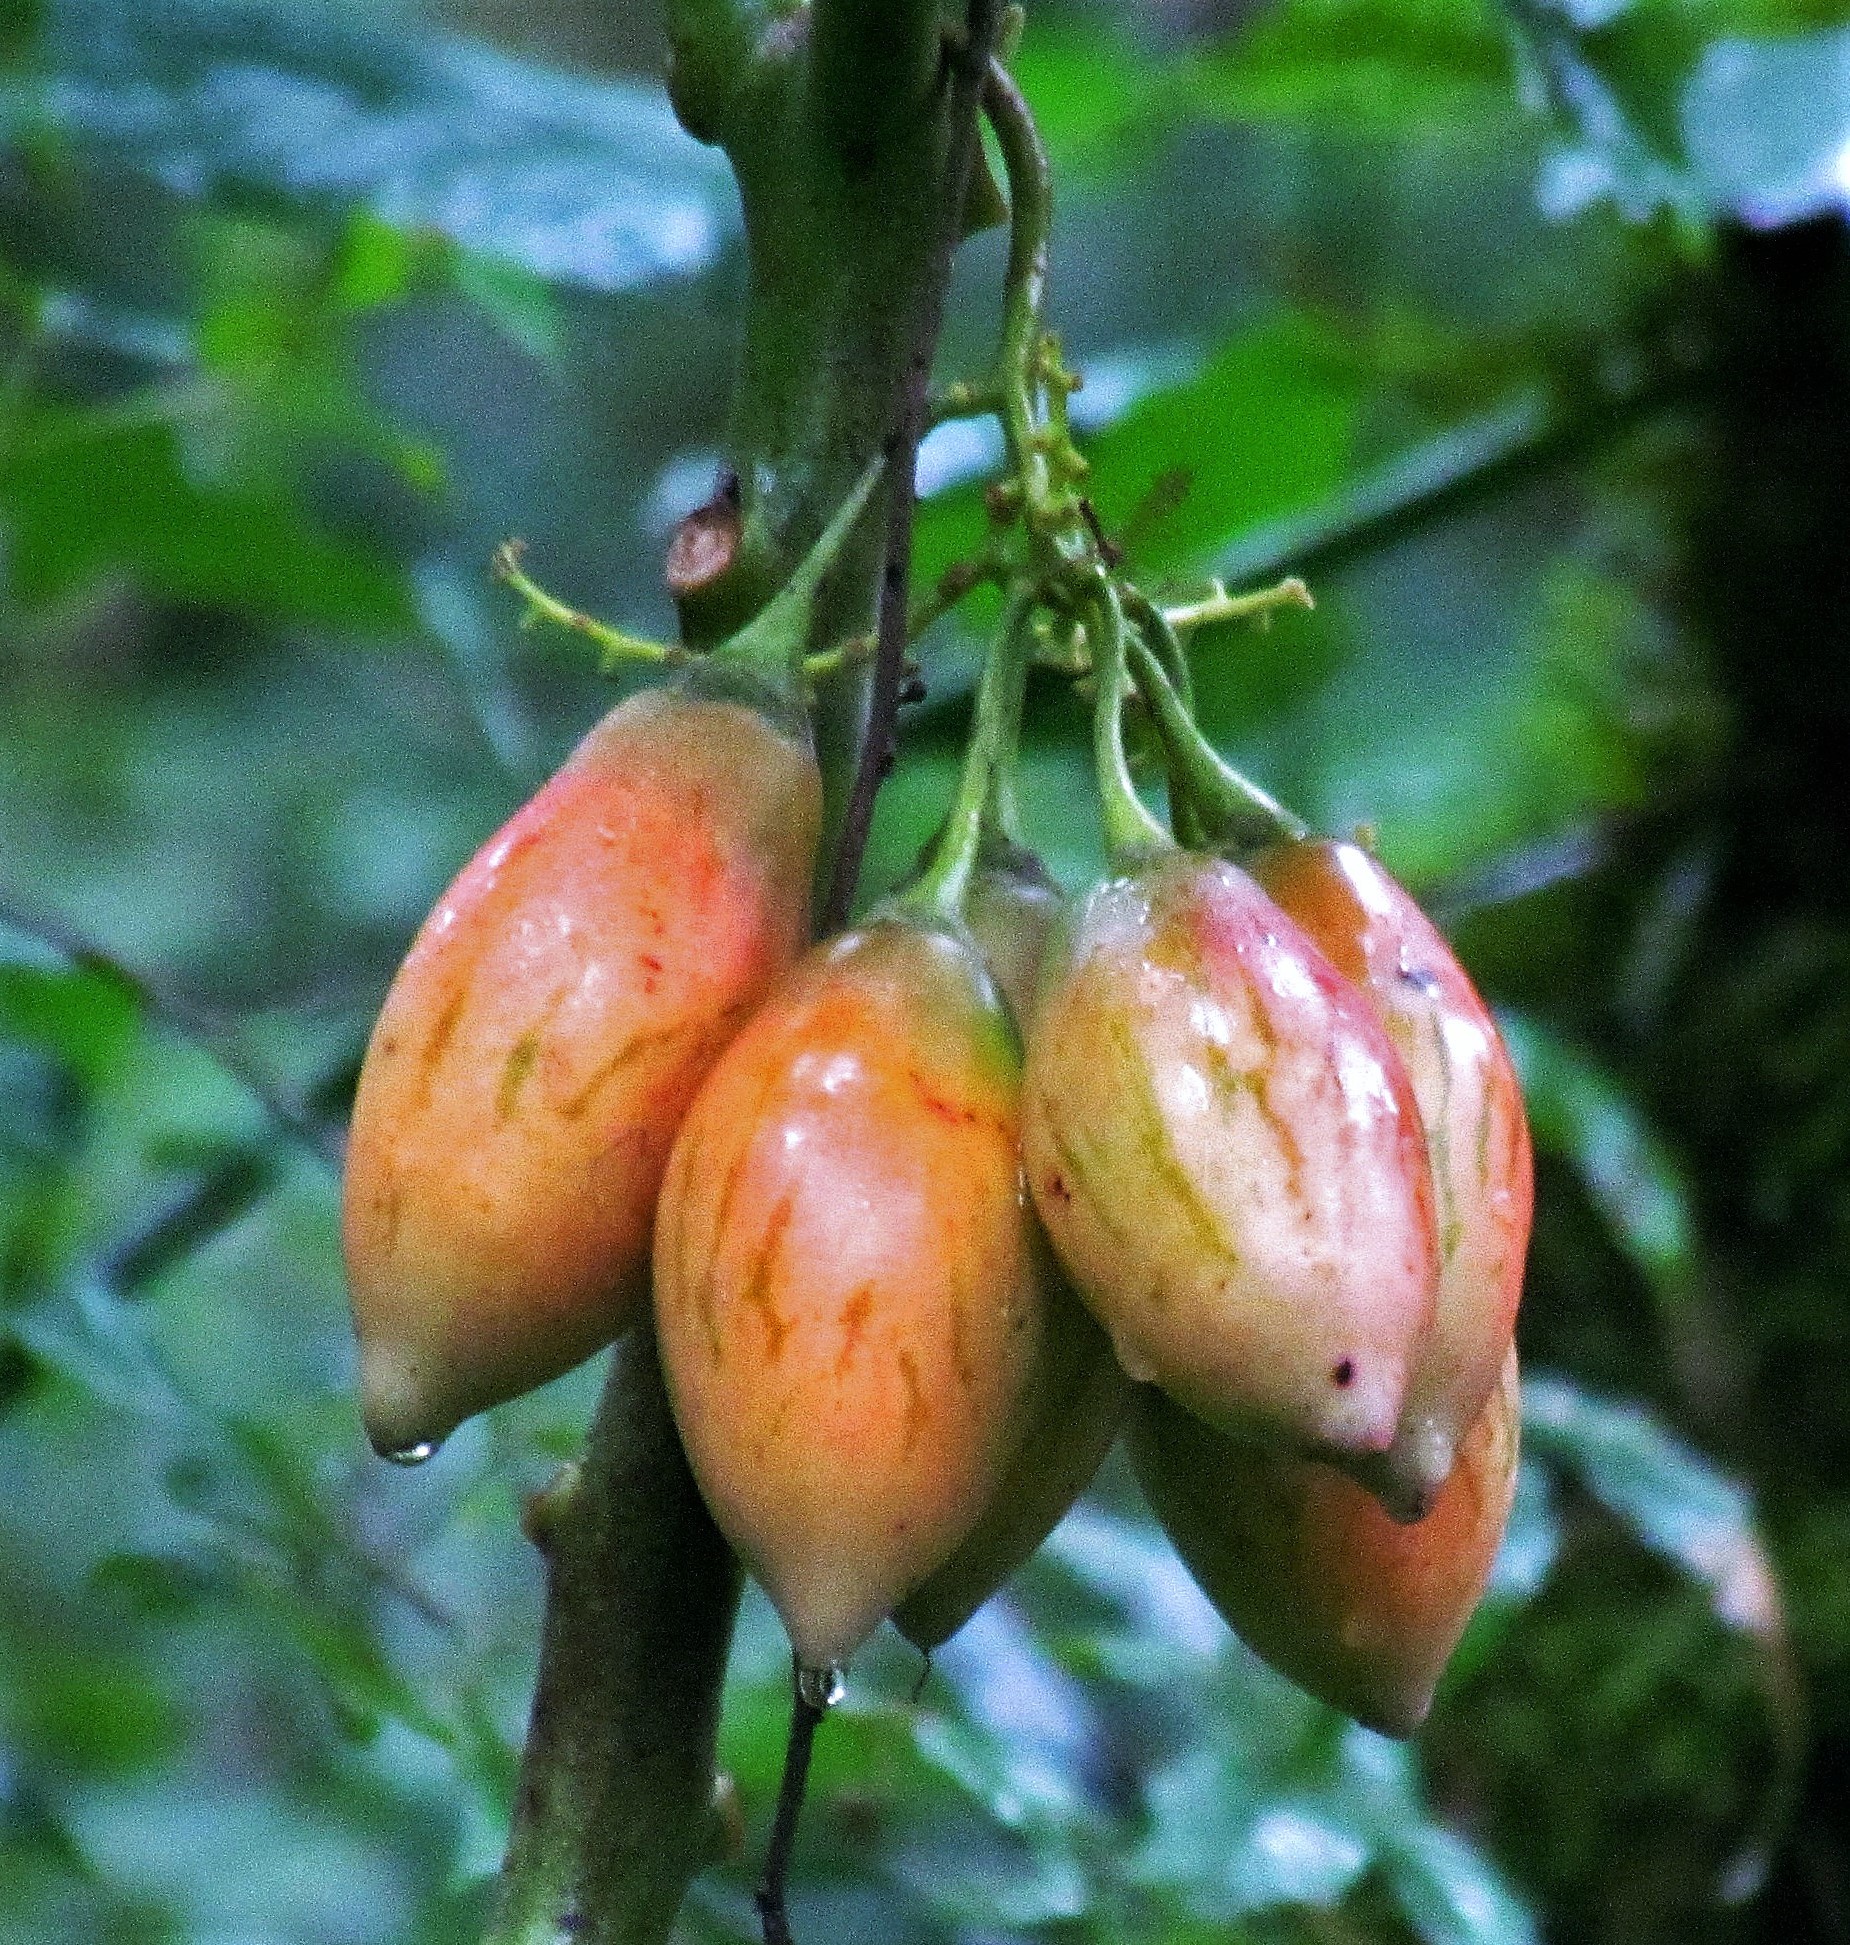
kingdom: Plantae
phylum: Tracheophyta
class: Magnoliopsida
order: Solanales
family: Solanaceae
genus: Solanum
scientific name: Solanum betaceum
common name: Tamarillo
